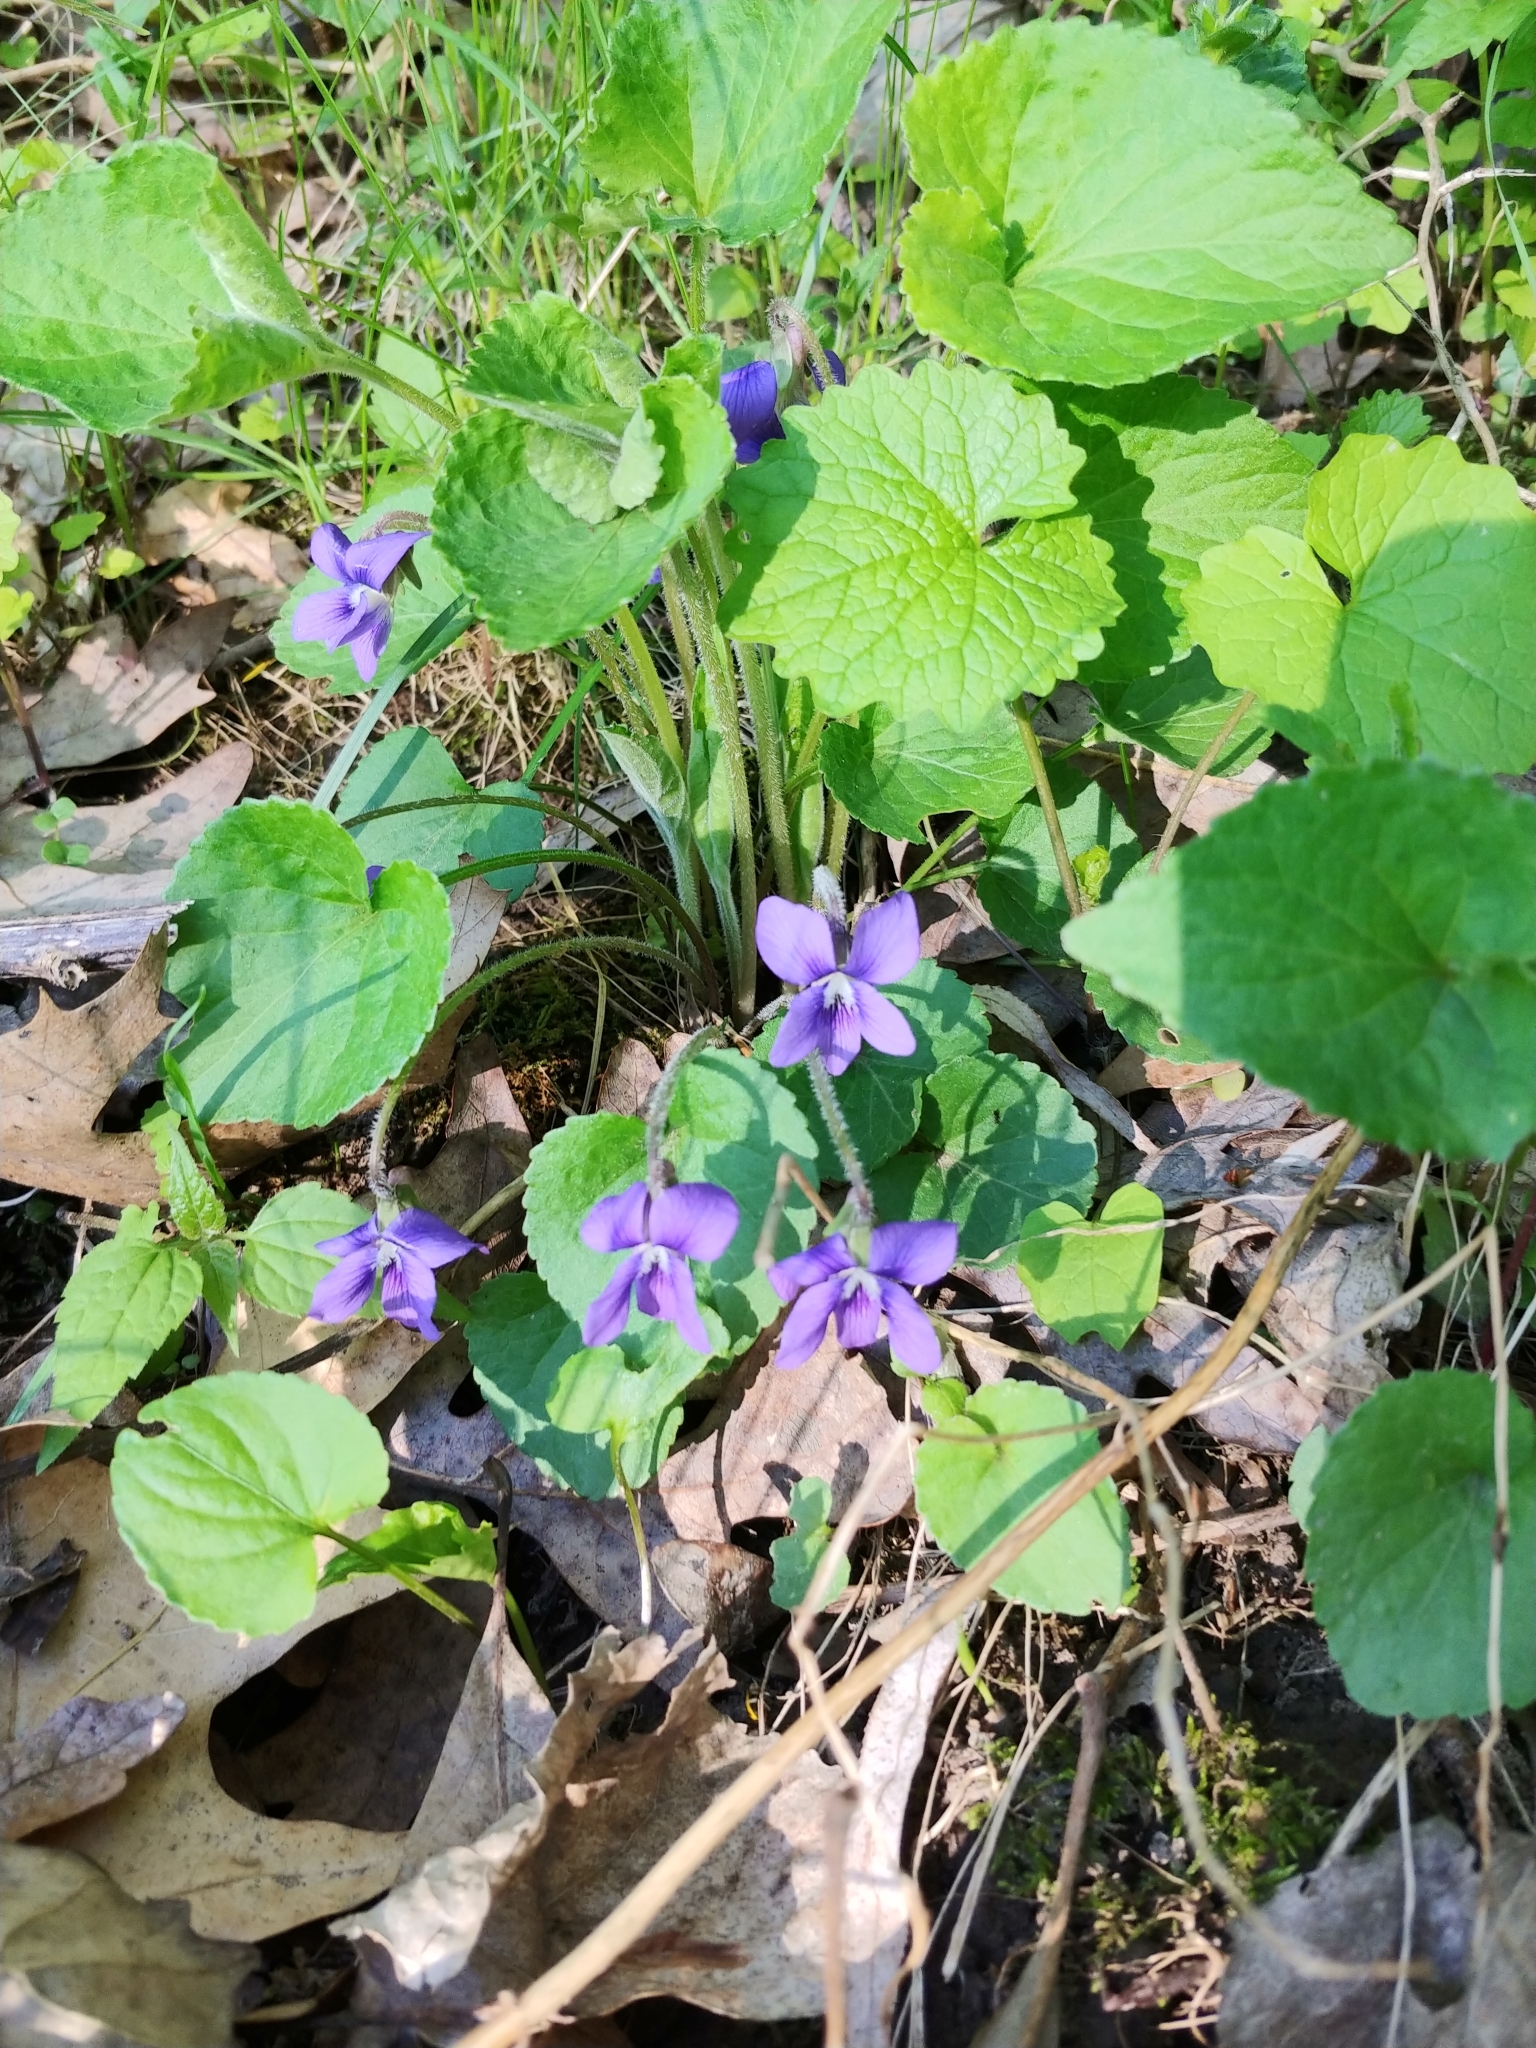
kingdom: Plantae
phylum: Tracheophyta
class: Magnoliopsida
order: Malpighiales
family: Violaceae
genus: Viola
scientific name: Viola sororia
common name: Dooryard violet
